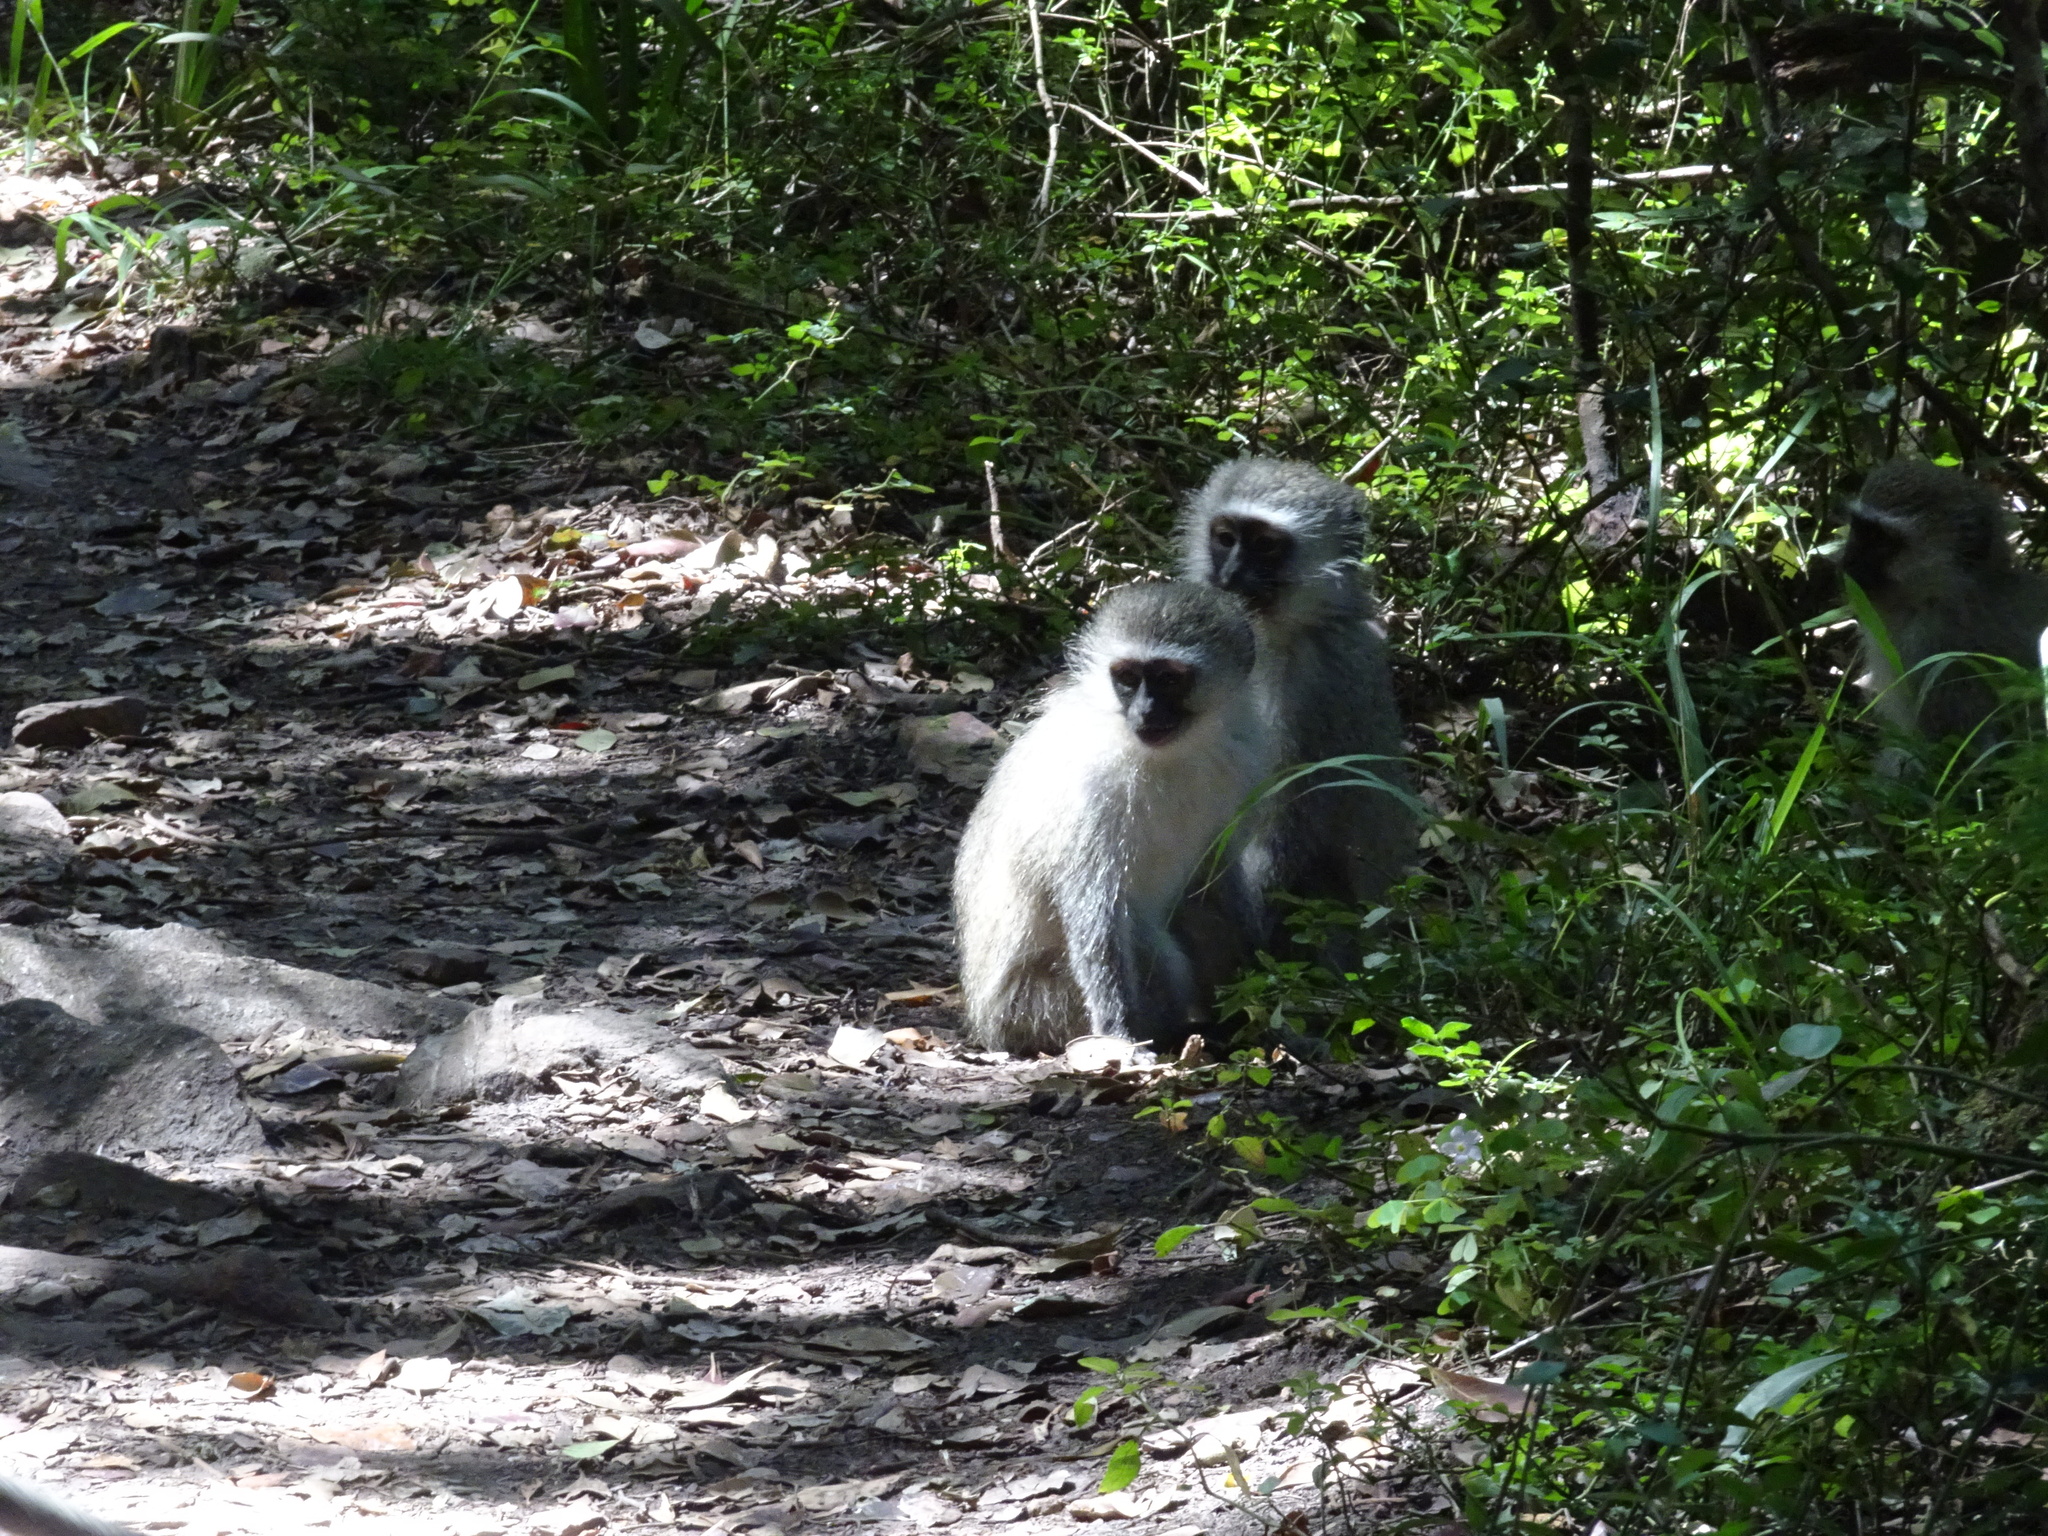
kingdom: Animalia
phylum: Chordata
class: Mammalia
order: Primates
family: Cercopithecidae
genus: Chlorocebus
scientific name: Chlorocebus pygerythrus
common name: Vervet monkey
